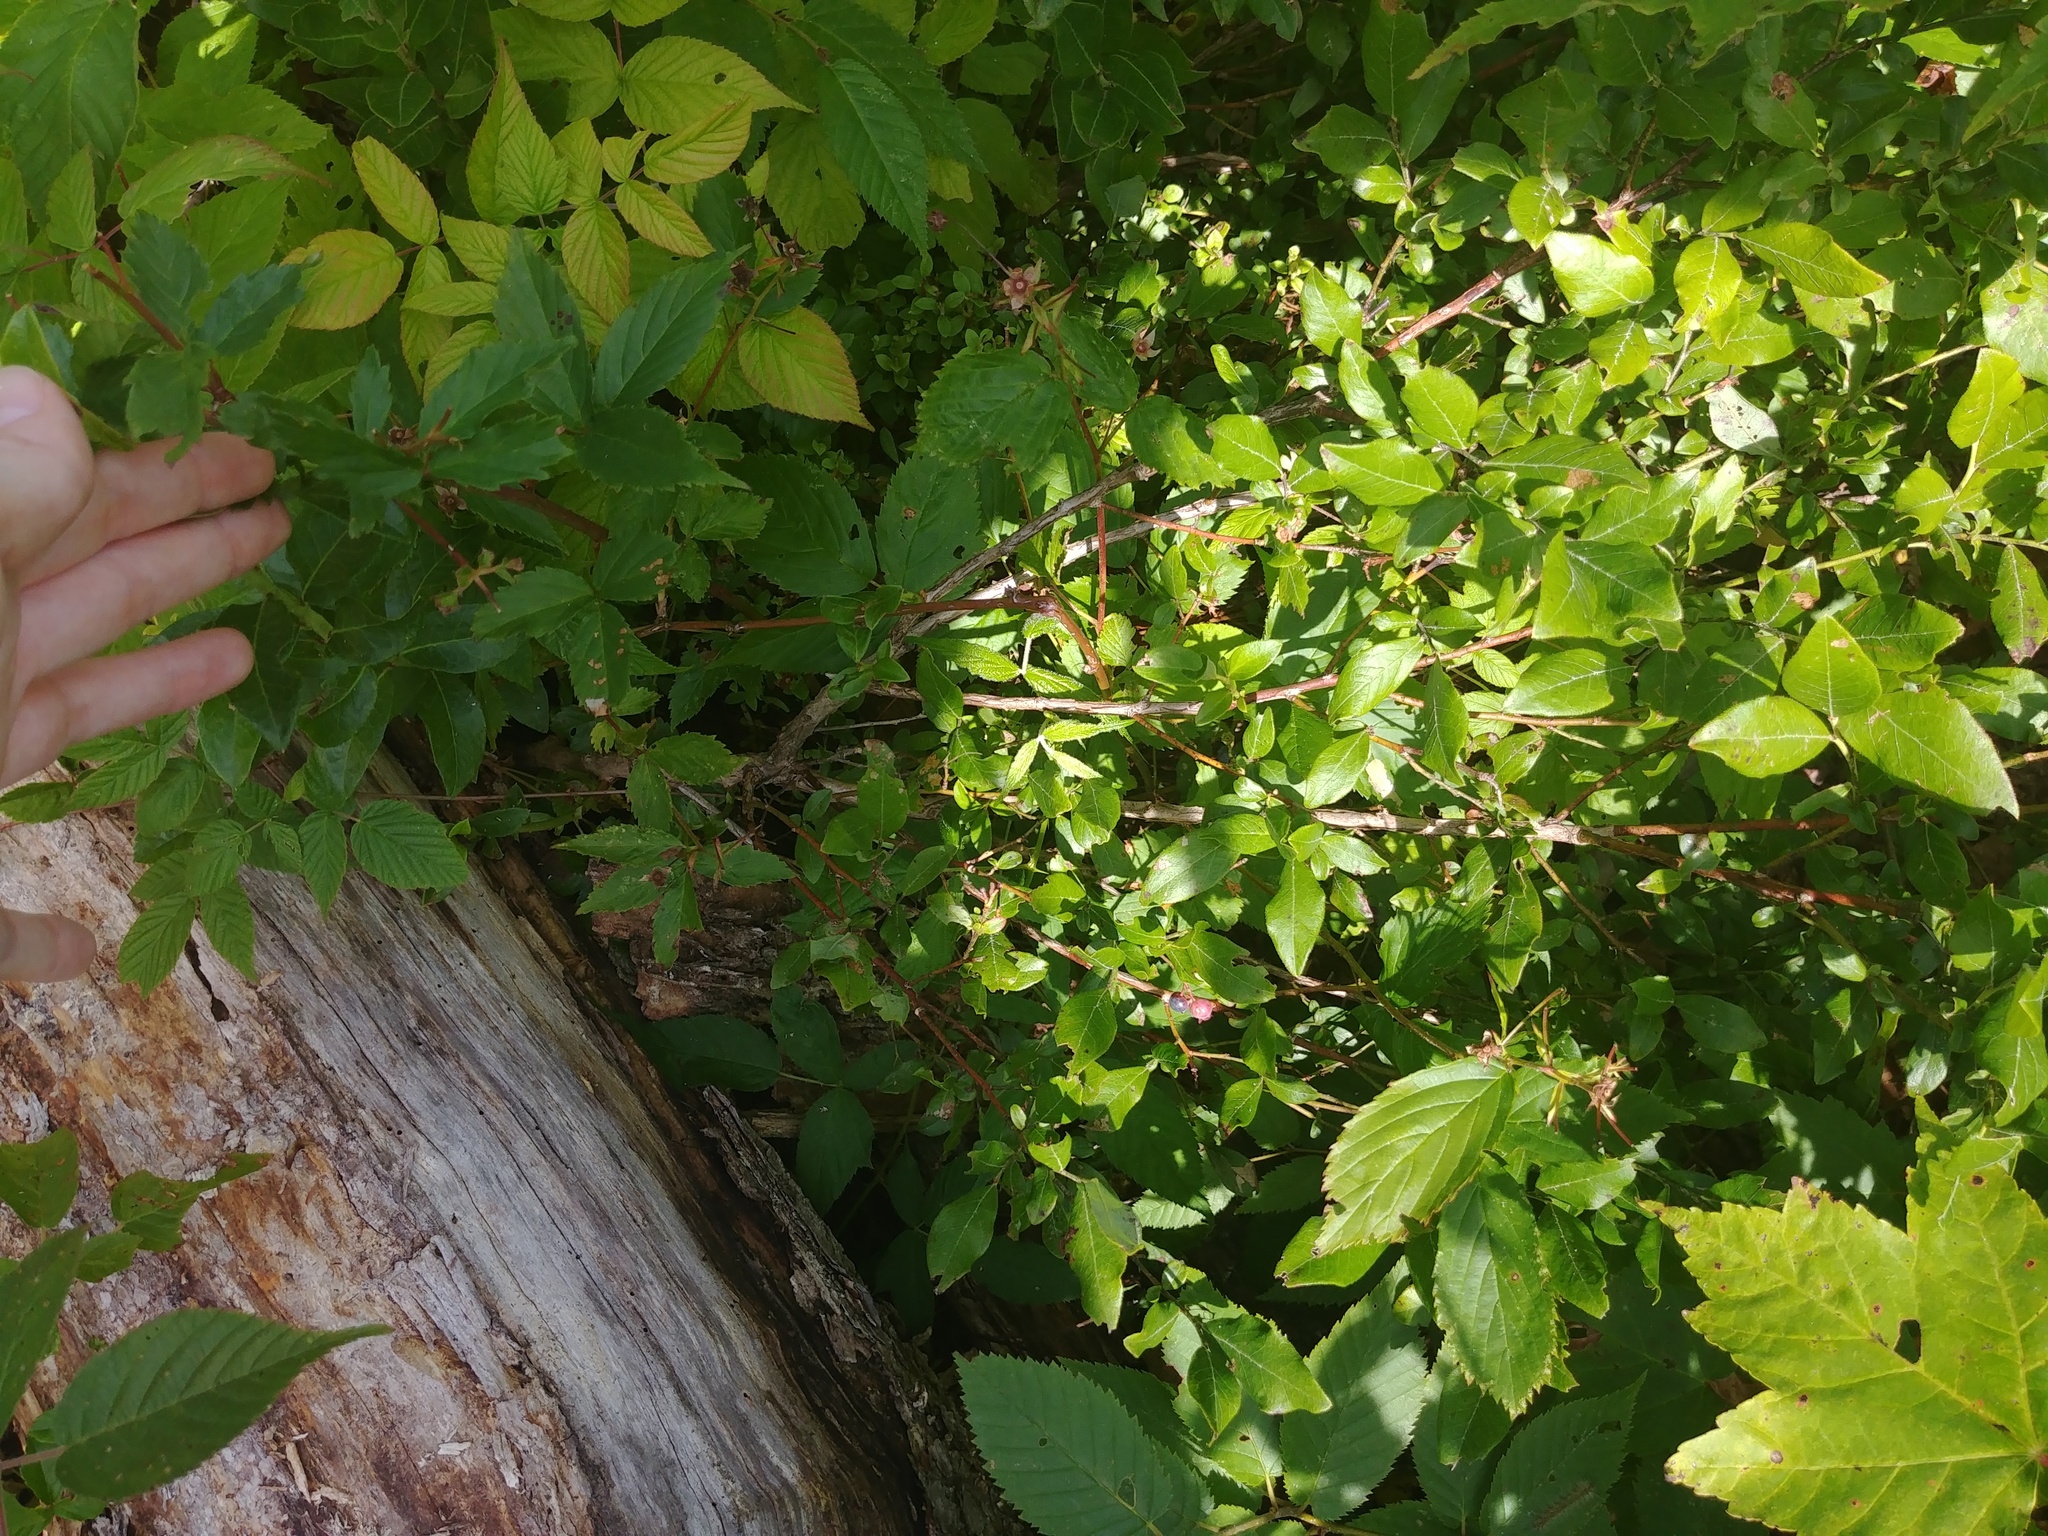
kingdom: Plantae
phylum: Tracheophyta
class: Magnoliopsida
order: Ericales
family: Ericaceae
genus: Vaccinium
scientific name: Vaccinium corymbosum
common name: Blueberry
